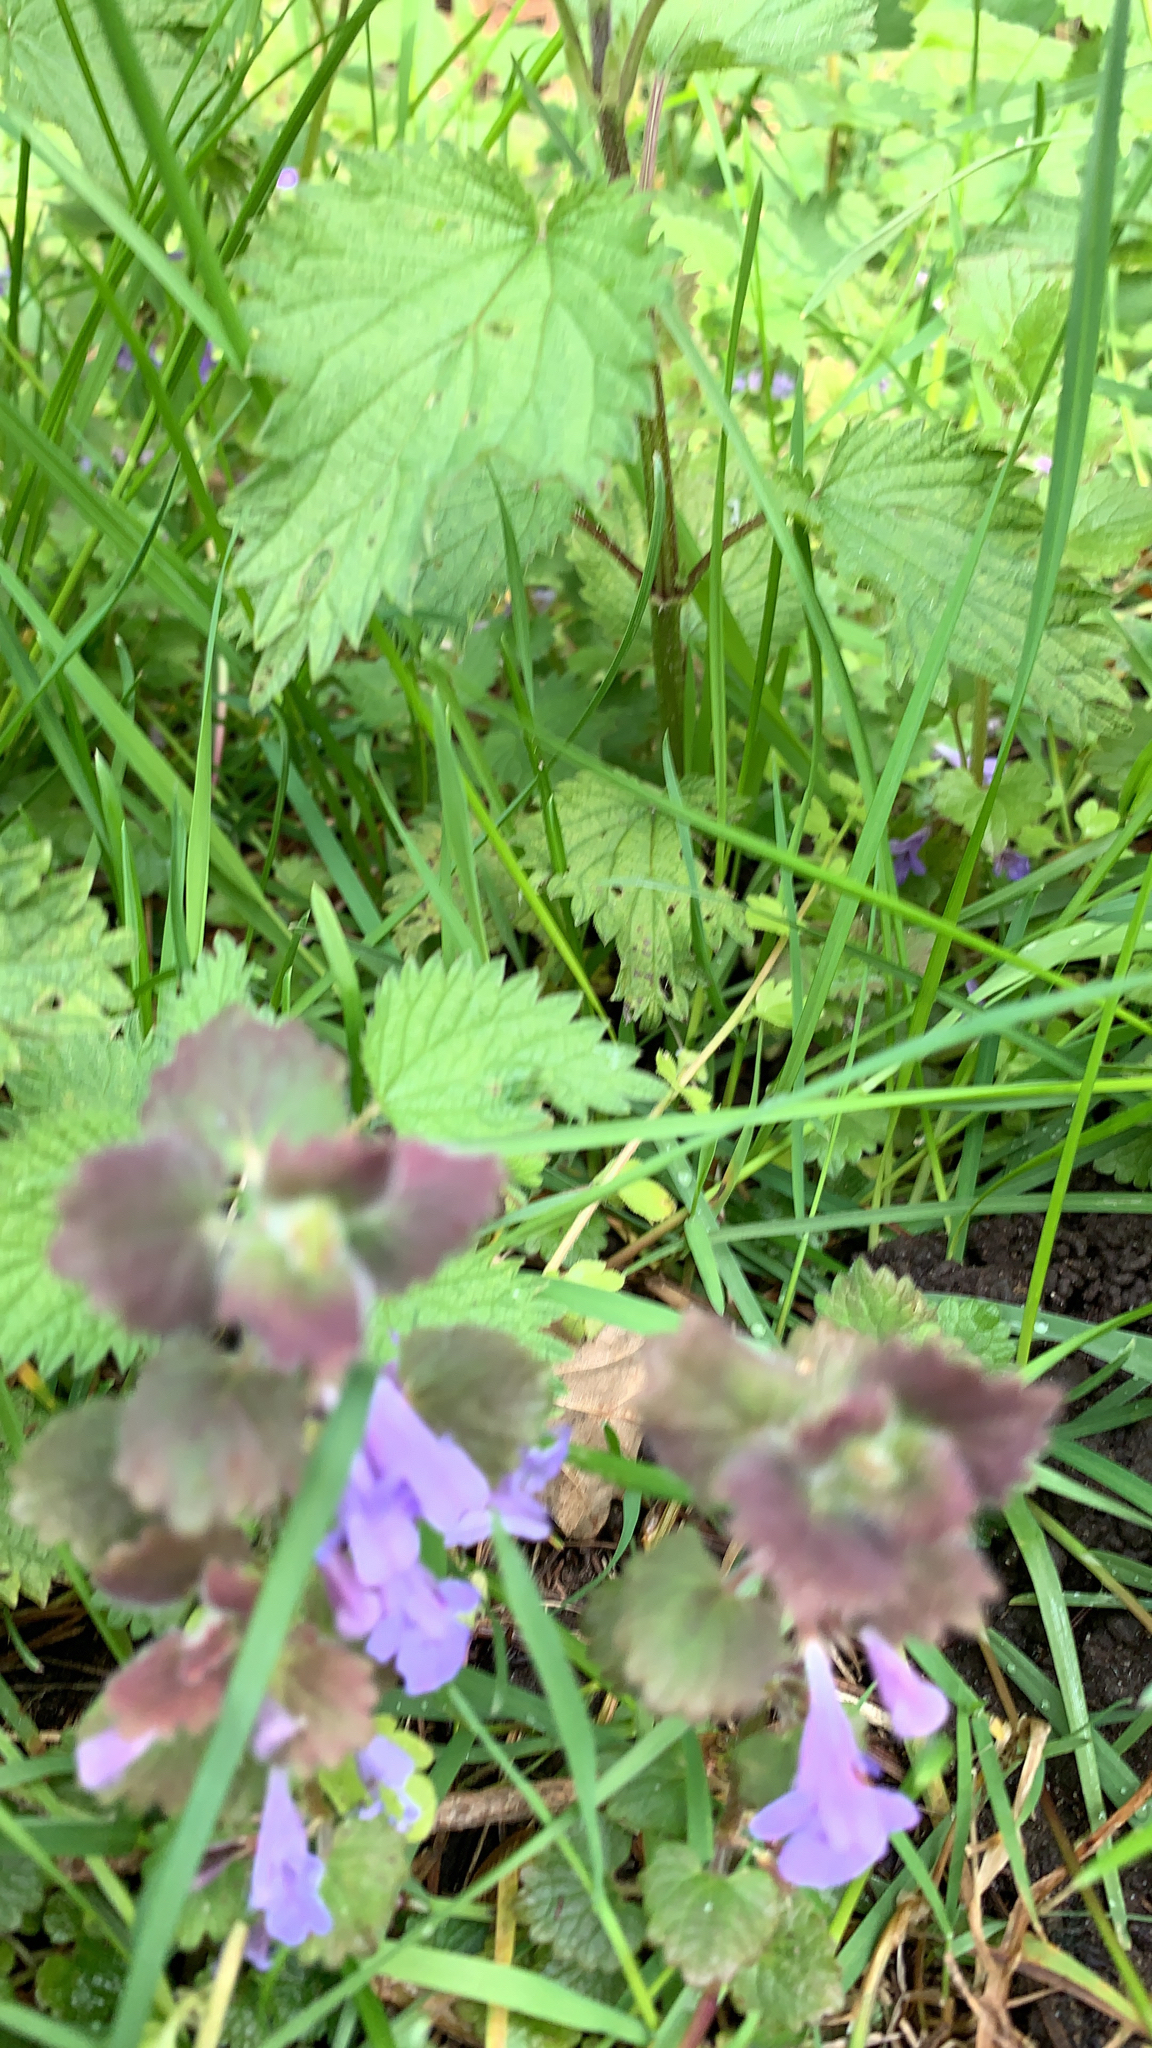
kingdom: Plantae
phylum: Tracheophyta
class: Magnoliopsida
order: Lamiales
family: Lamiaceae
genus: Glechoma
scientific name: Glechoma hederacea
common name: Ground ivy
